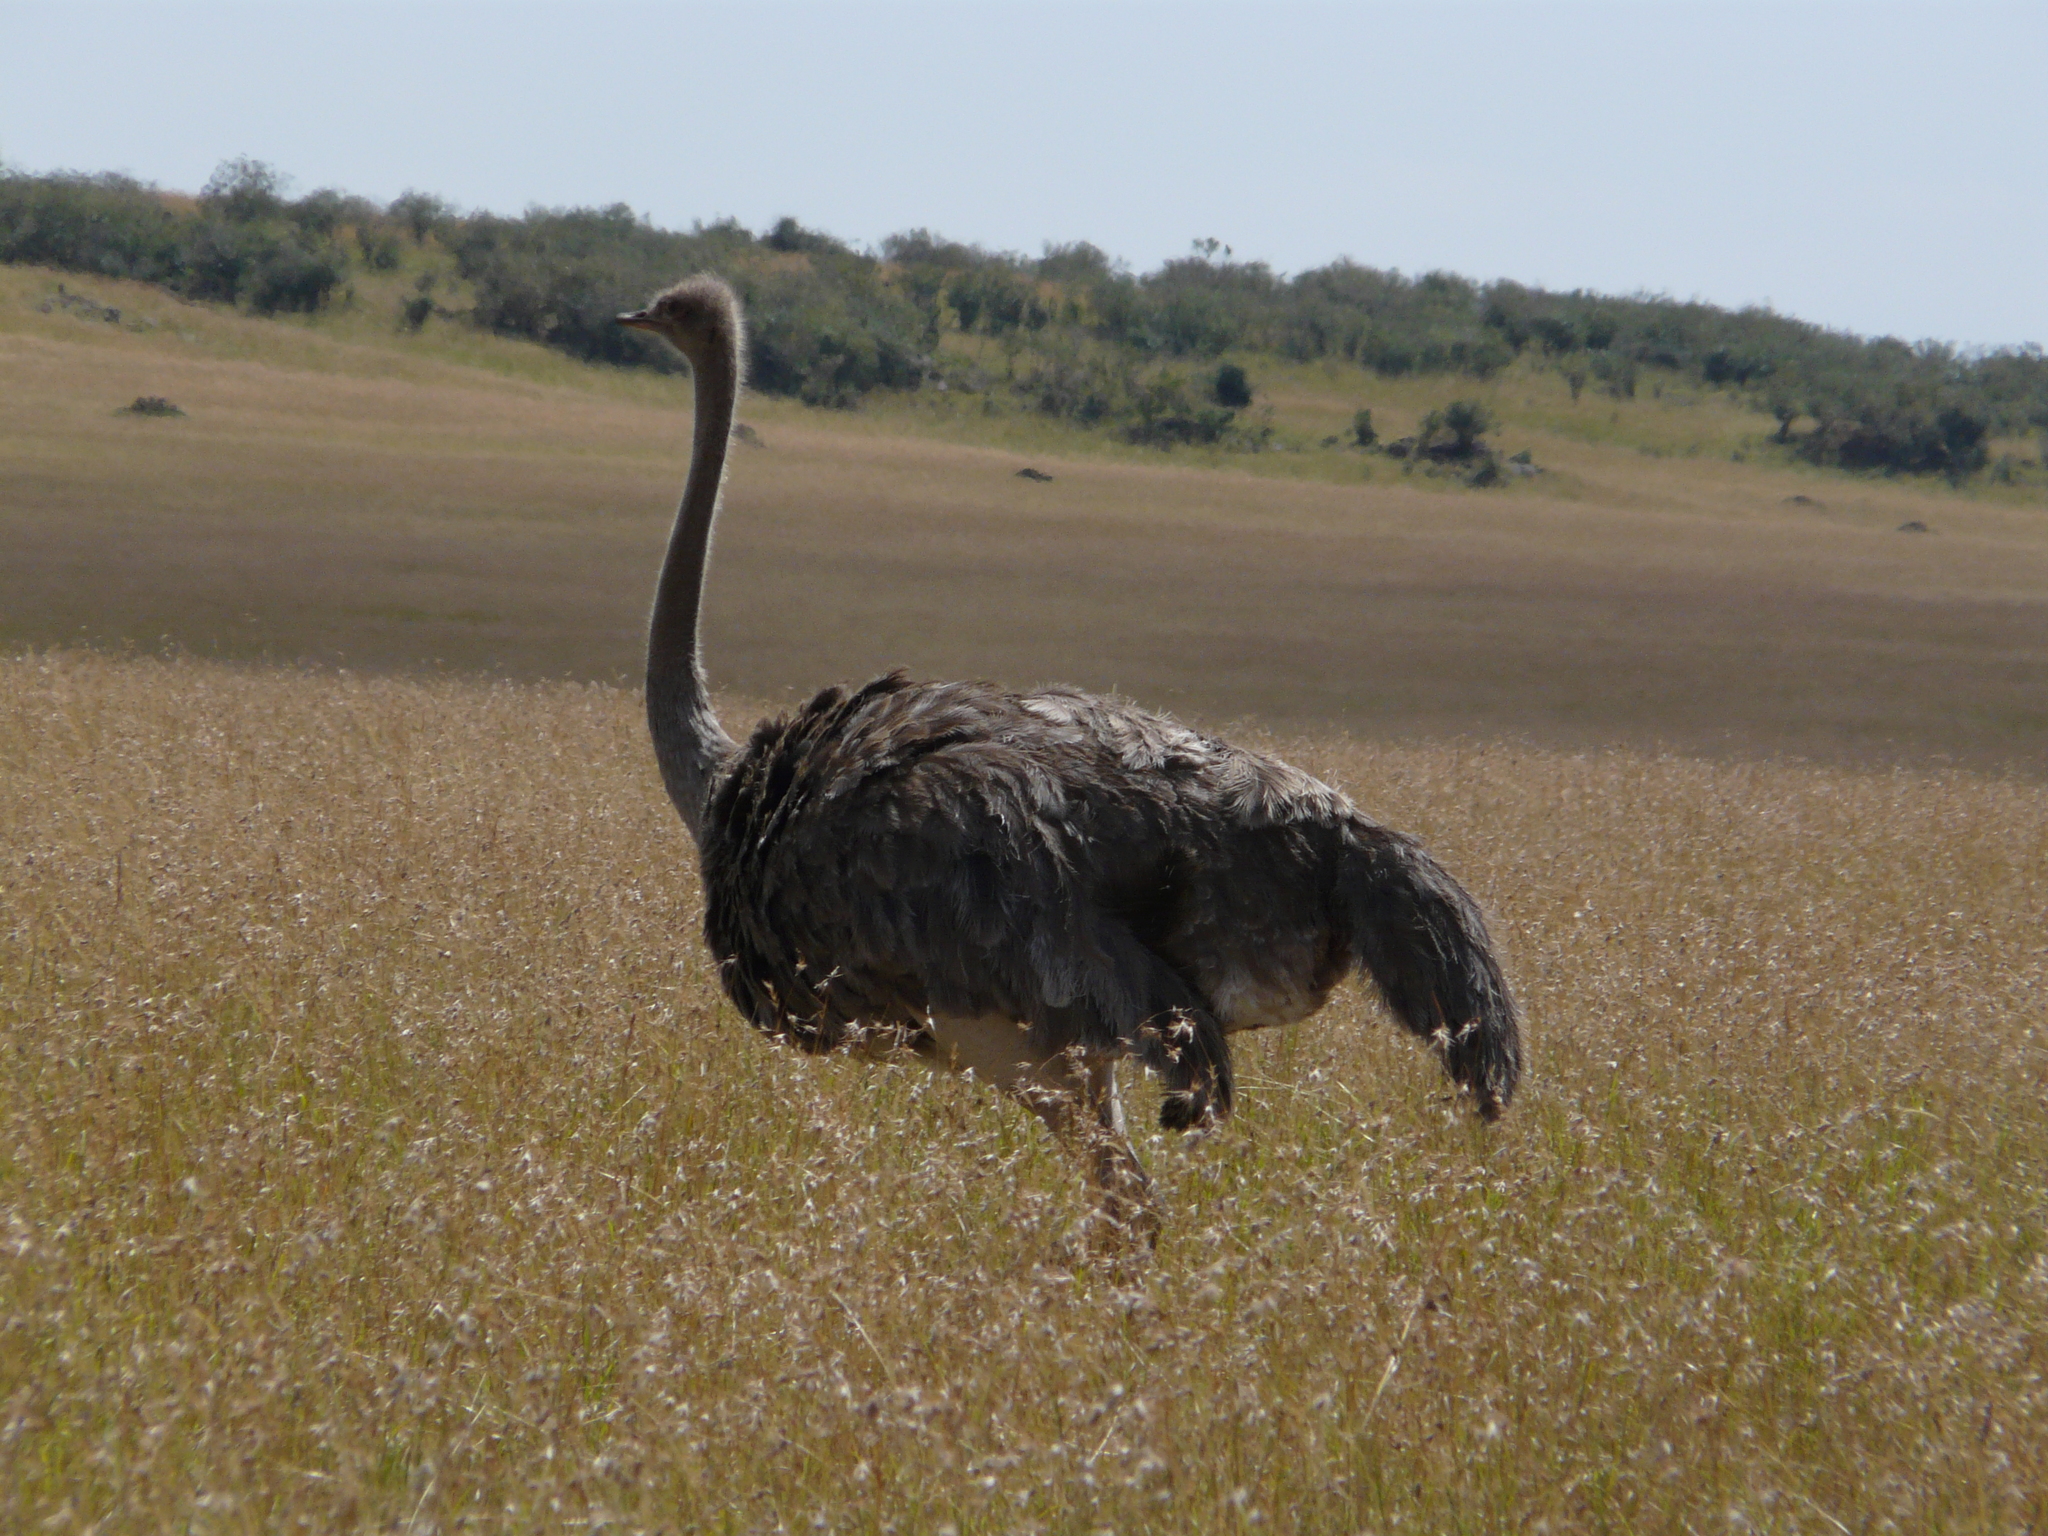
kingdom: Animalia
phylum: Chordata
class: Aves
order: Struthioniformes
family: Struthionidae
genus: Struthio
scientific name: Struthio camelus
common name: Common ostrich
